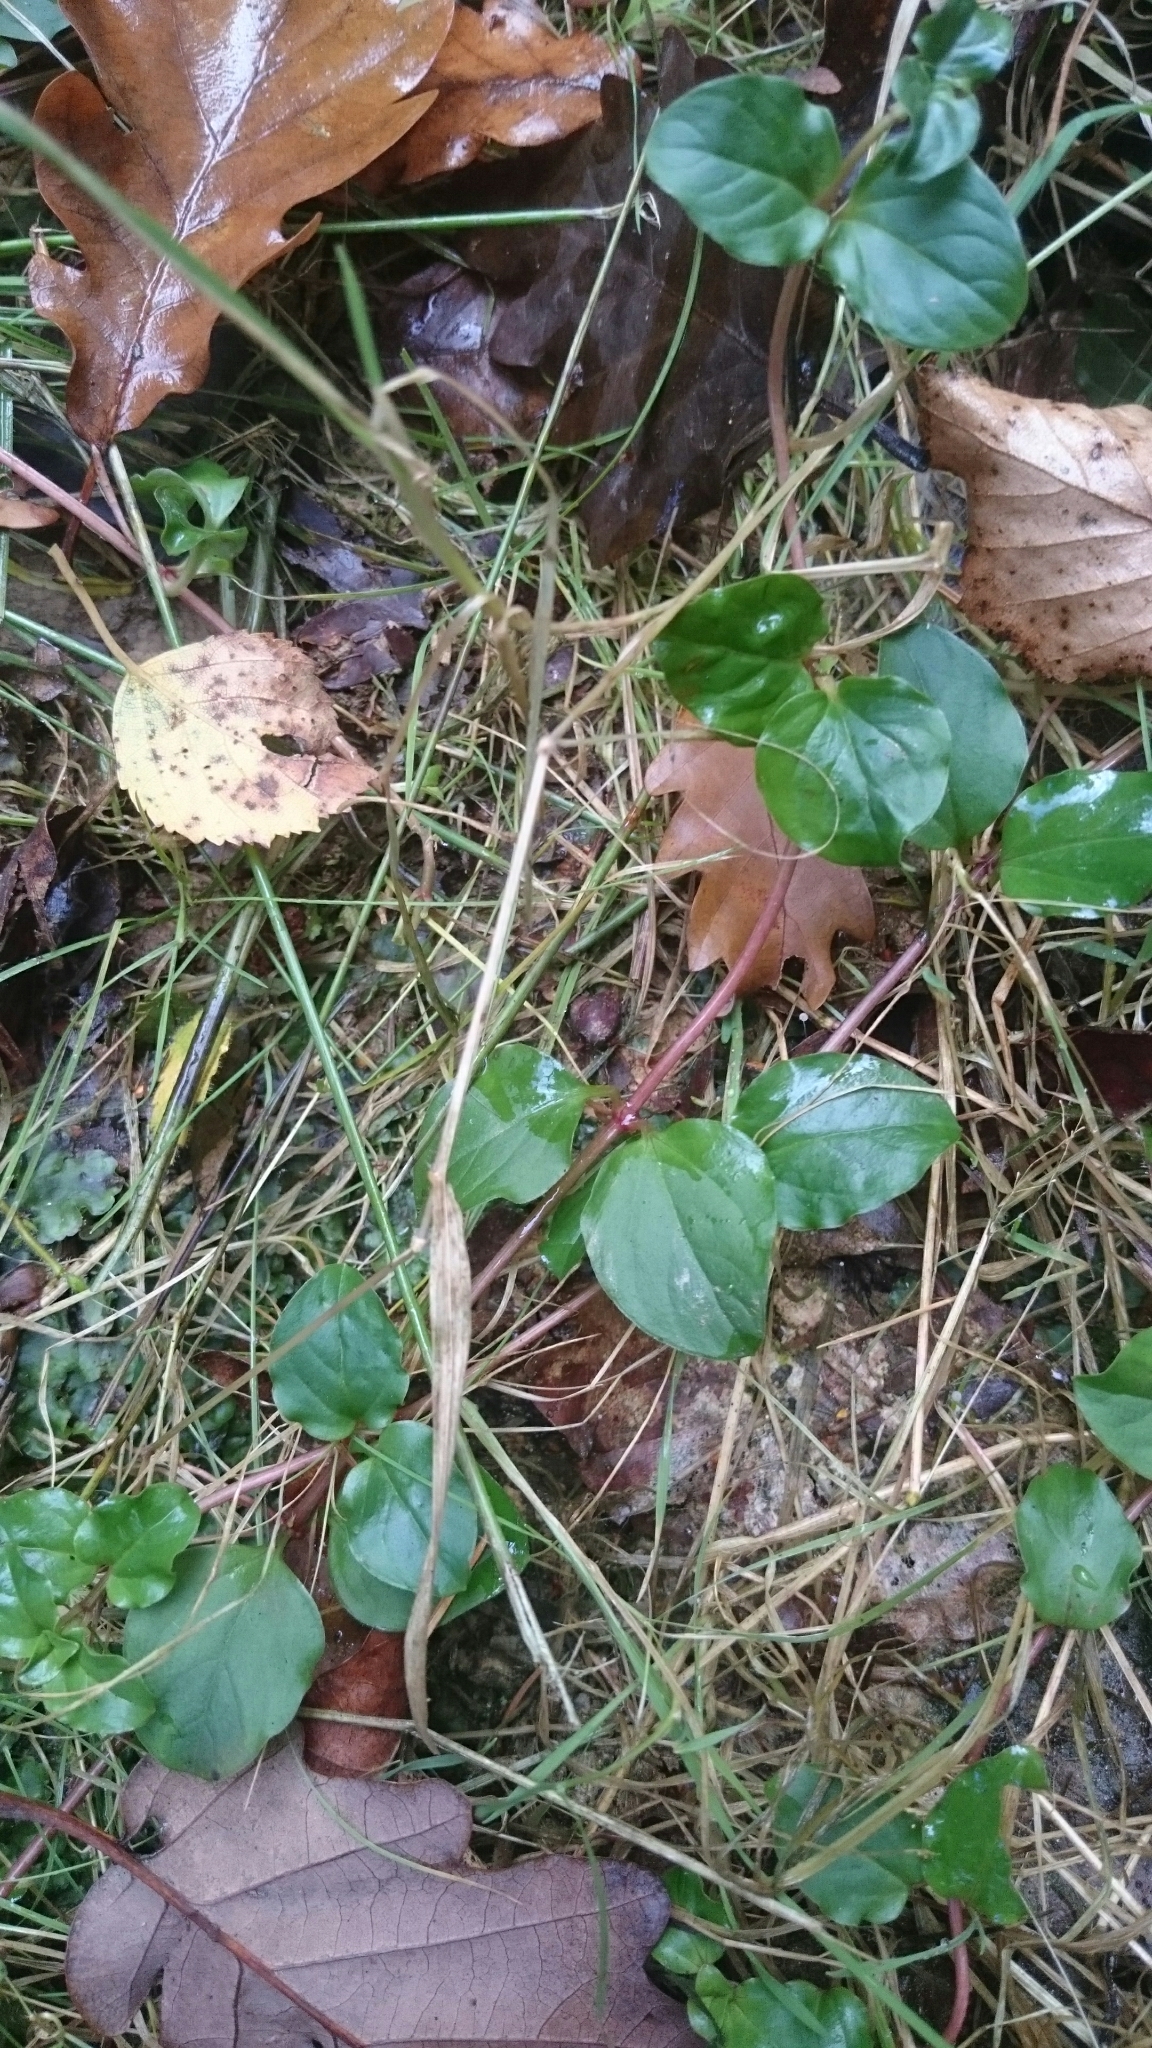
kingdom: Plantae
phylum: Tracheophyta
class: Magnoliopsida
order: Ericales
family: Primulaceae
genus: Lysimachia
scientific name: Lysimachia nummularia
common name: Moneywort
